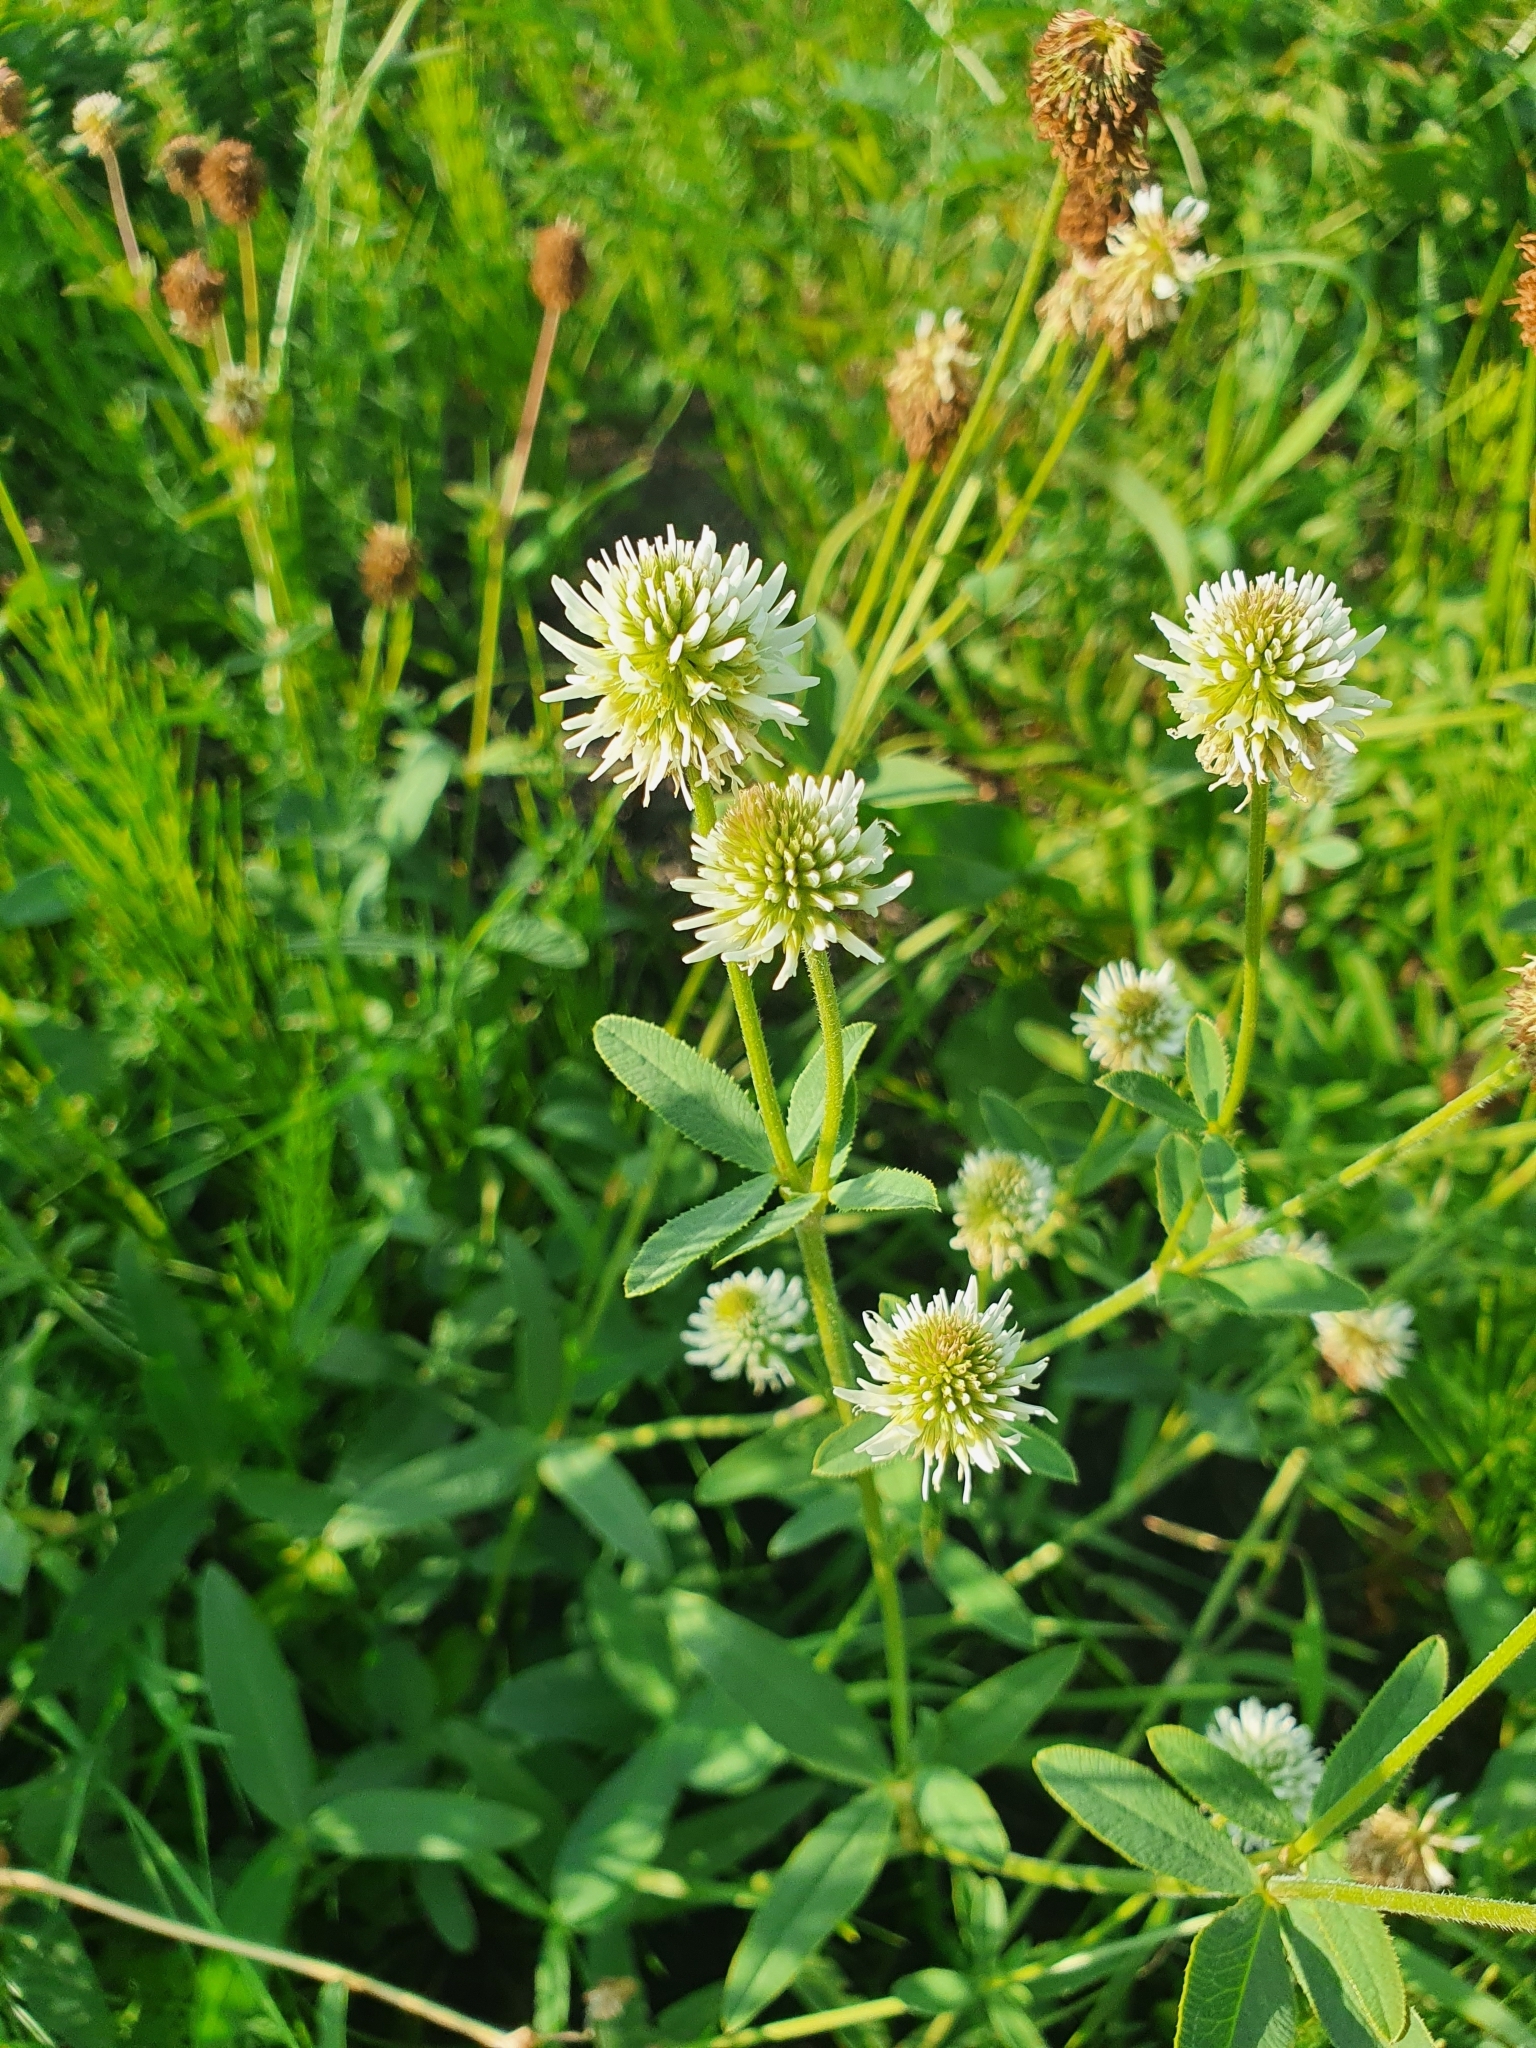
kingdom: Plantae
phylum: Tracheophyta
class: Magnoliopsida
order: Fabales
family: Fabaceae
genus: Trifolium
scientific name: Trifolium montanum
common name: Mountain clover
